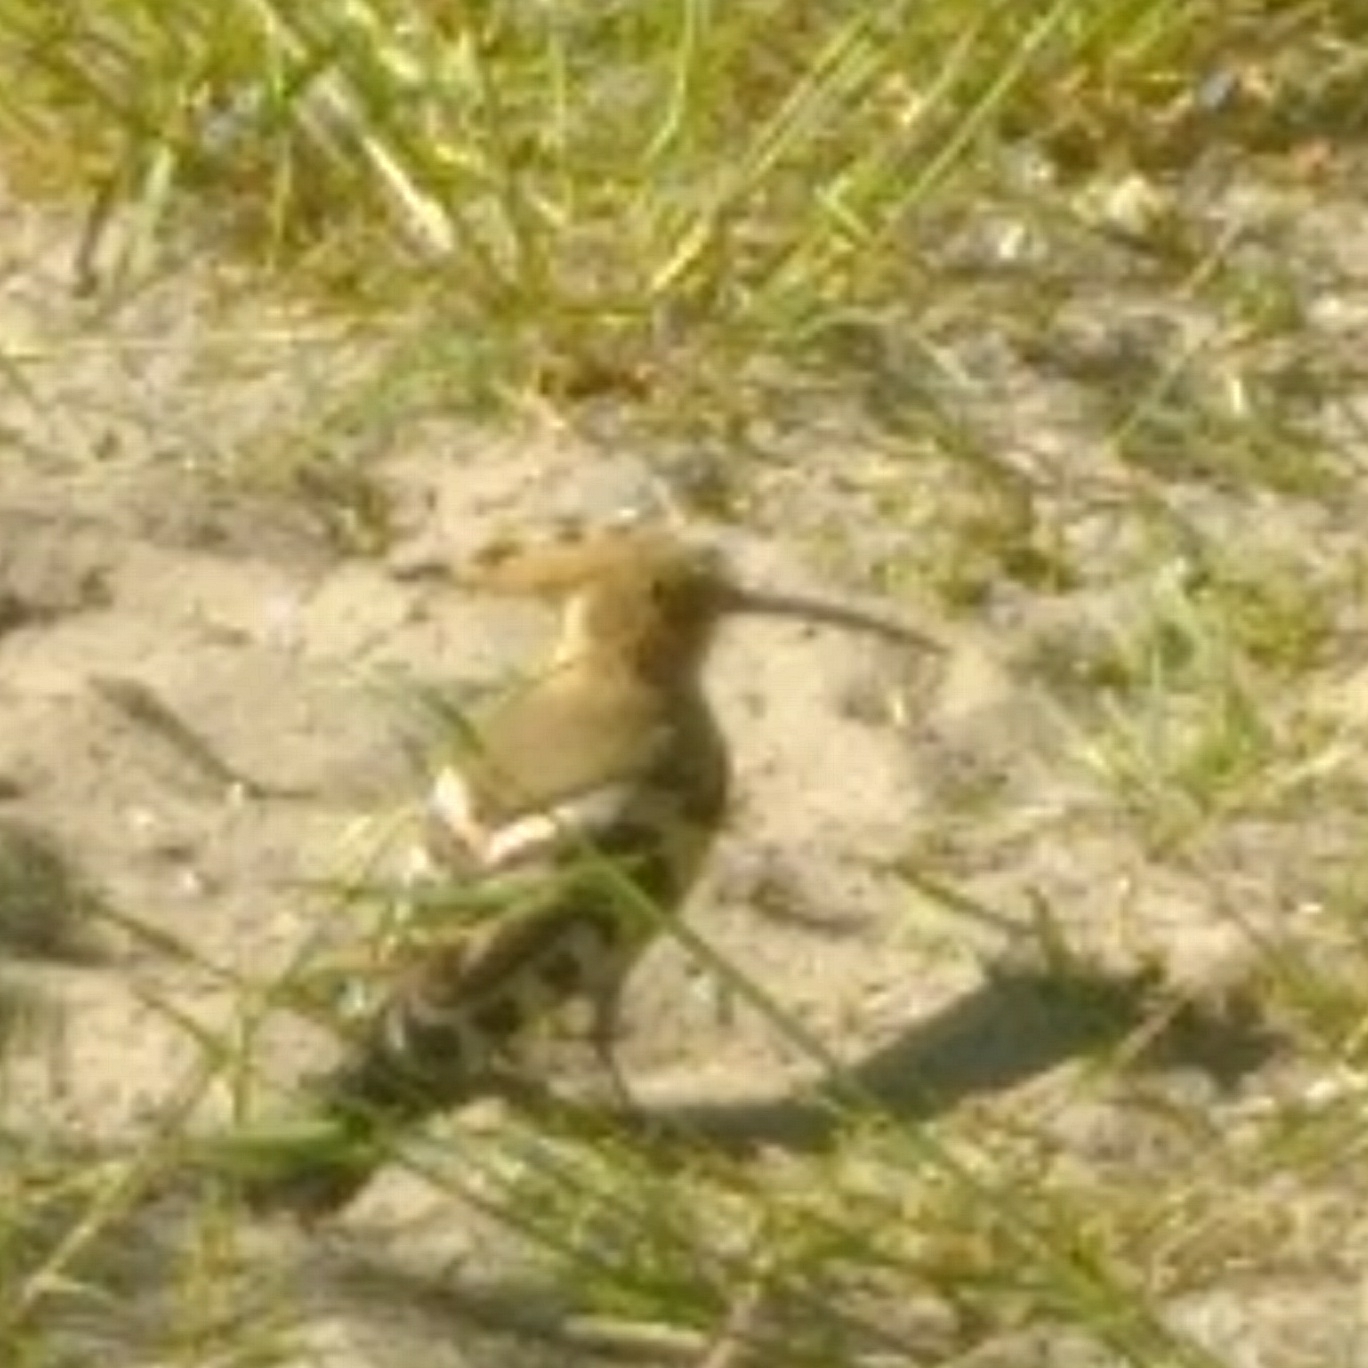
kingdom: Animalia
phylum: Chordata
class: Aves
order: Bucerotiformes
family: Upupidae
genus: Upupa
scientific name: Upupa epops
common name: Eurasian hoopoe
